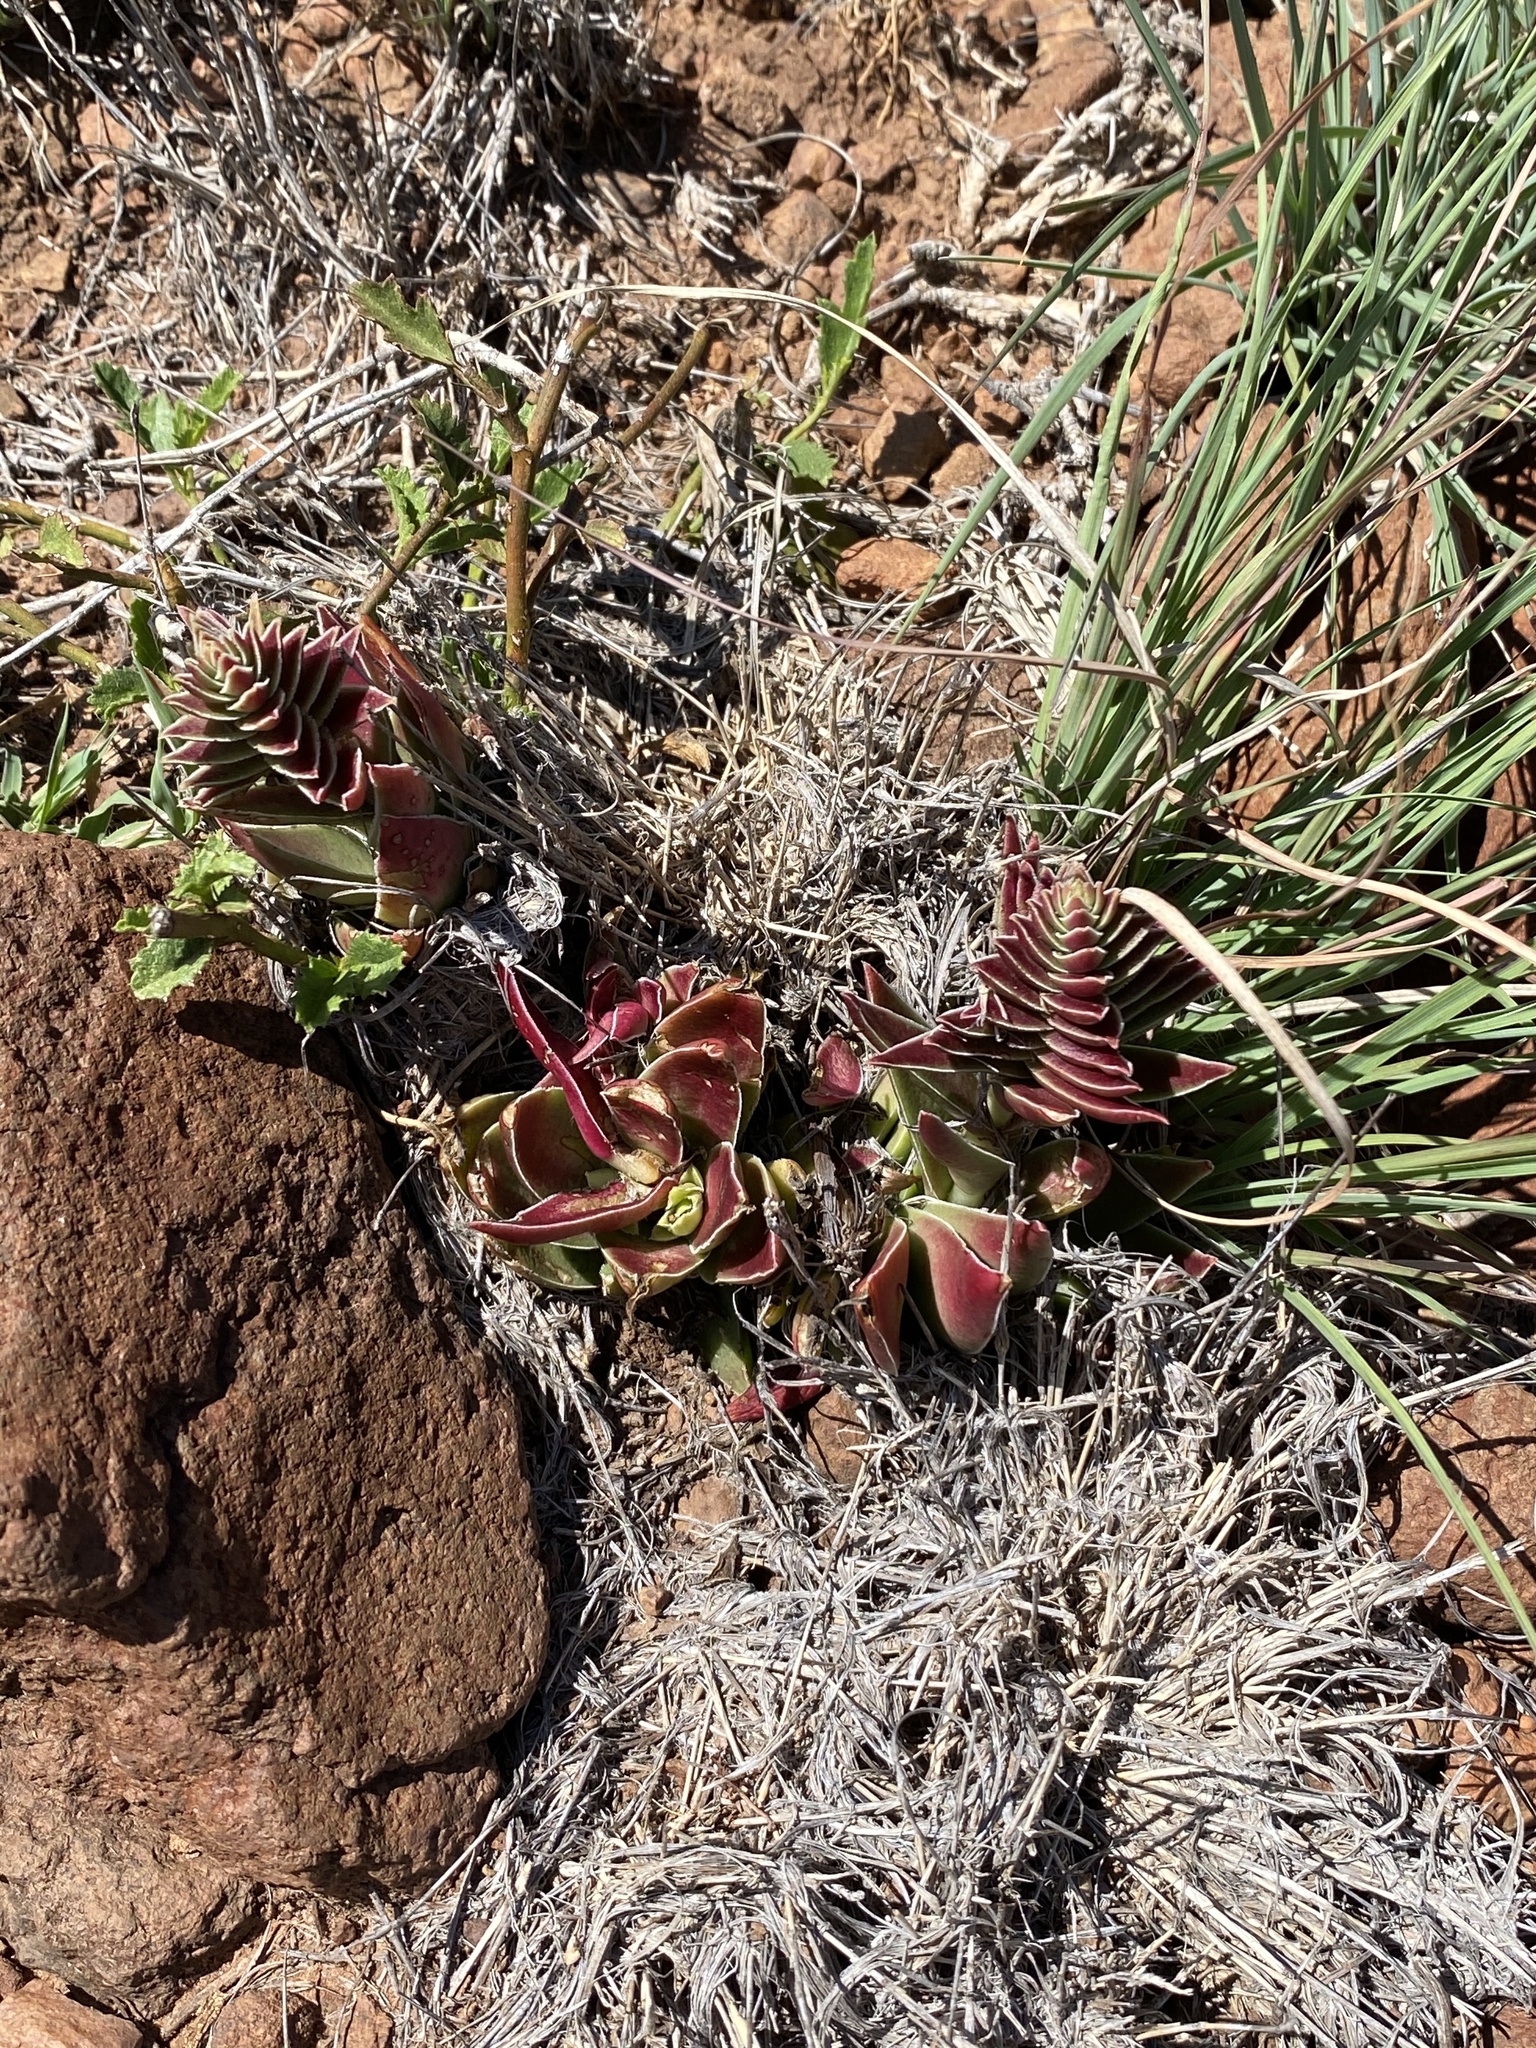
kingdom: Plantae
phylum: Tracheophyta
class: Magnoliopsida
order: Saxifragales
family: Crassulaceae
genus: Crassula
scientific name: Crassula capitella
